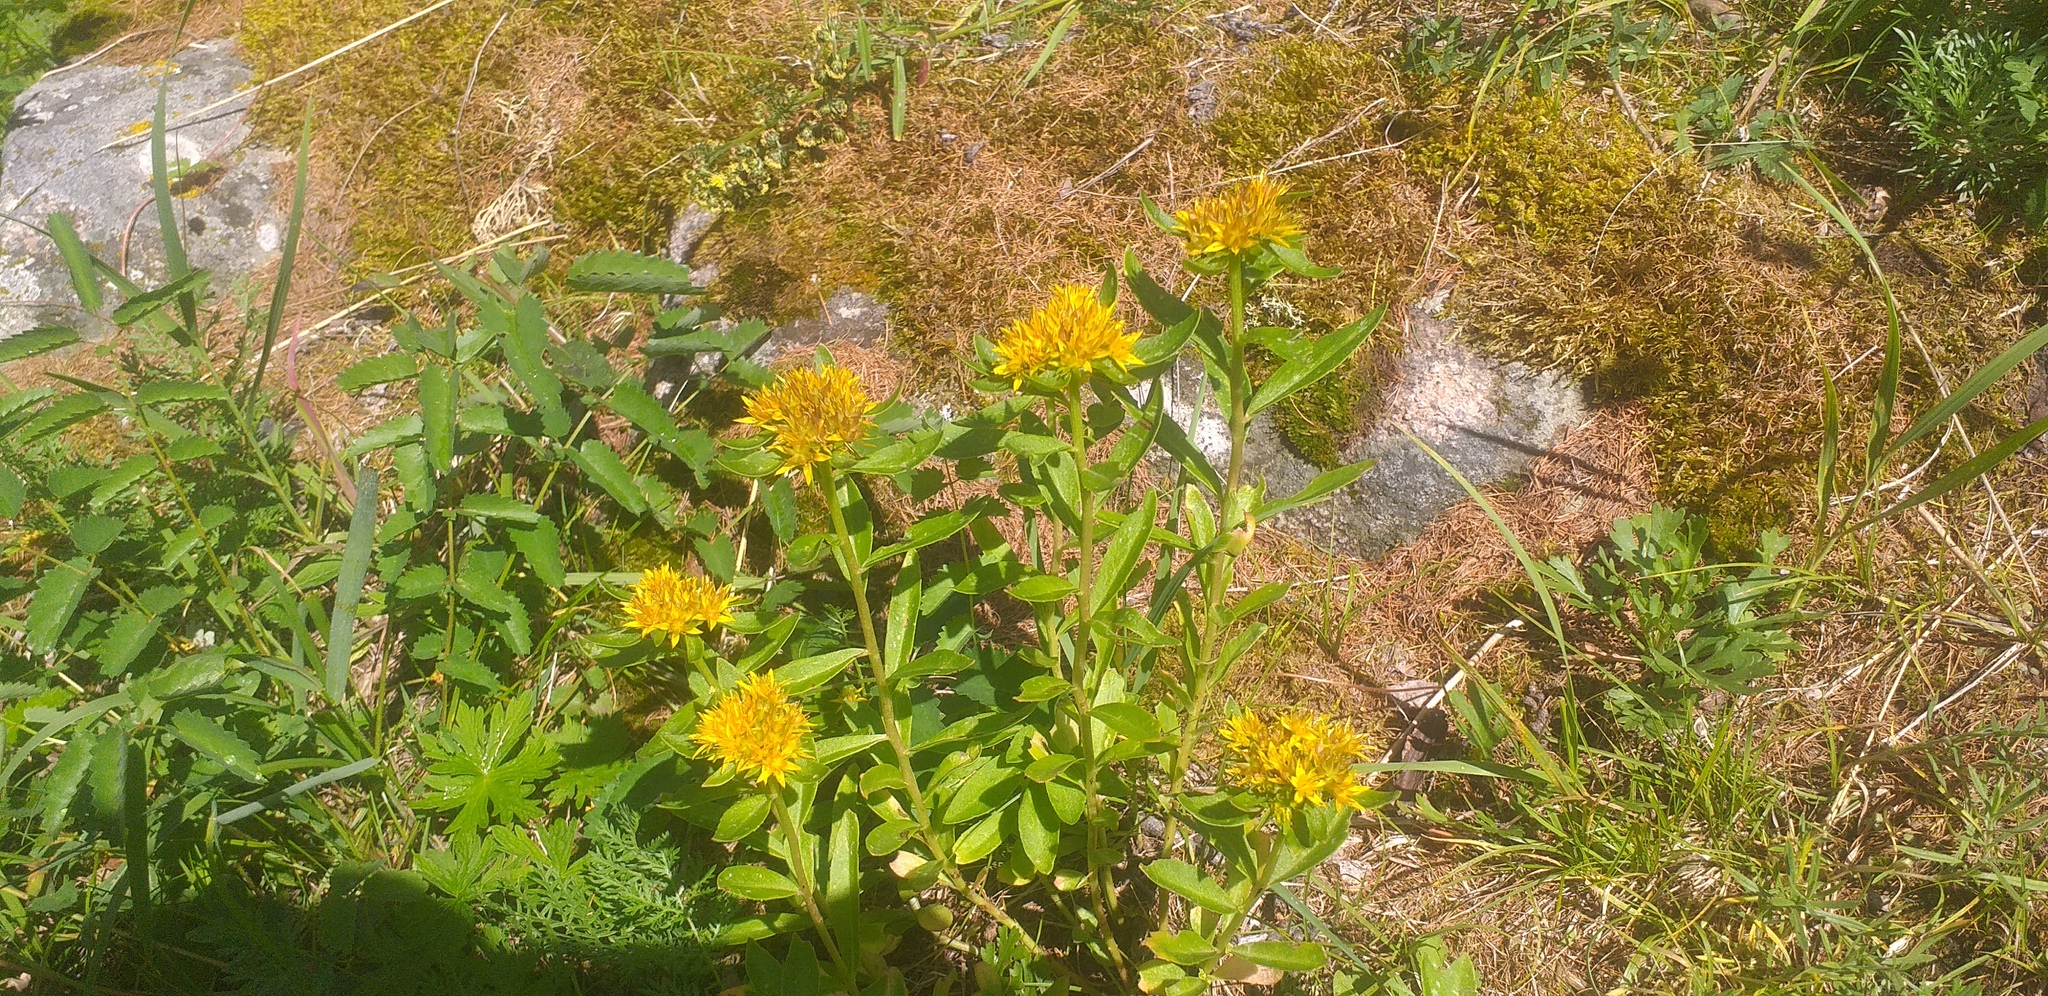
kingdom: Plantae
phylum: Tracheophyta
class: Magnoliopsida
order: Saxifragales
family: Crassulaceae
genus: Phedimus
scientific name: Phedimus aizoon
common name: Orpin aizoon
